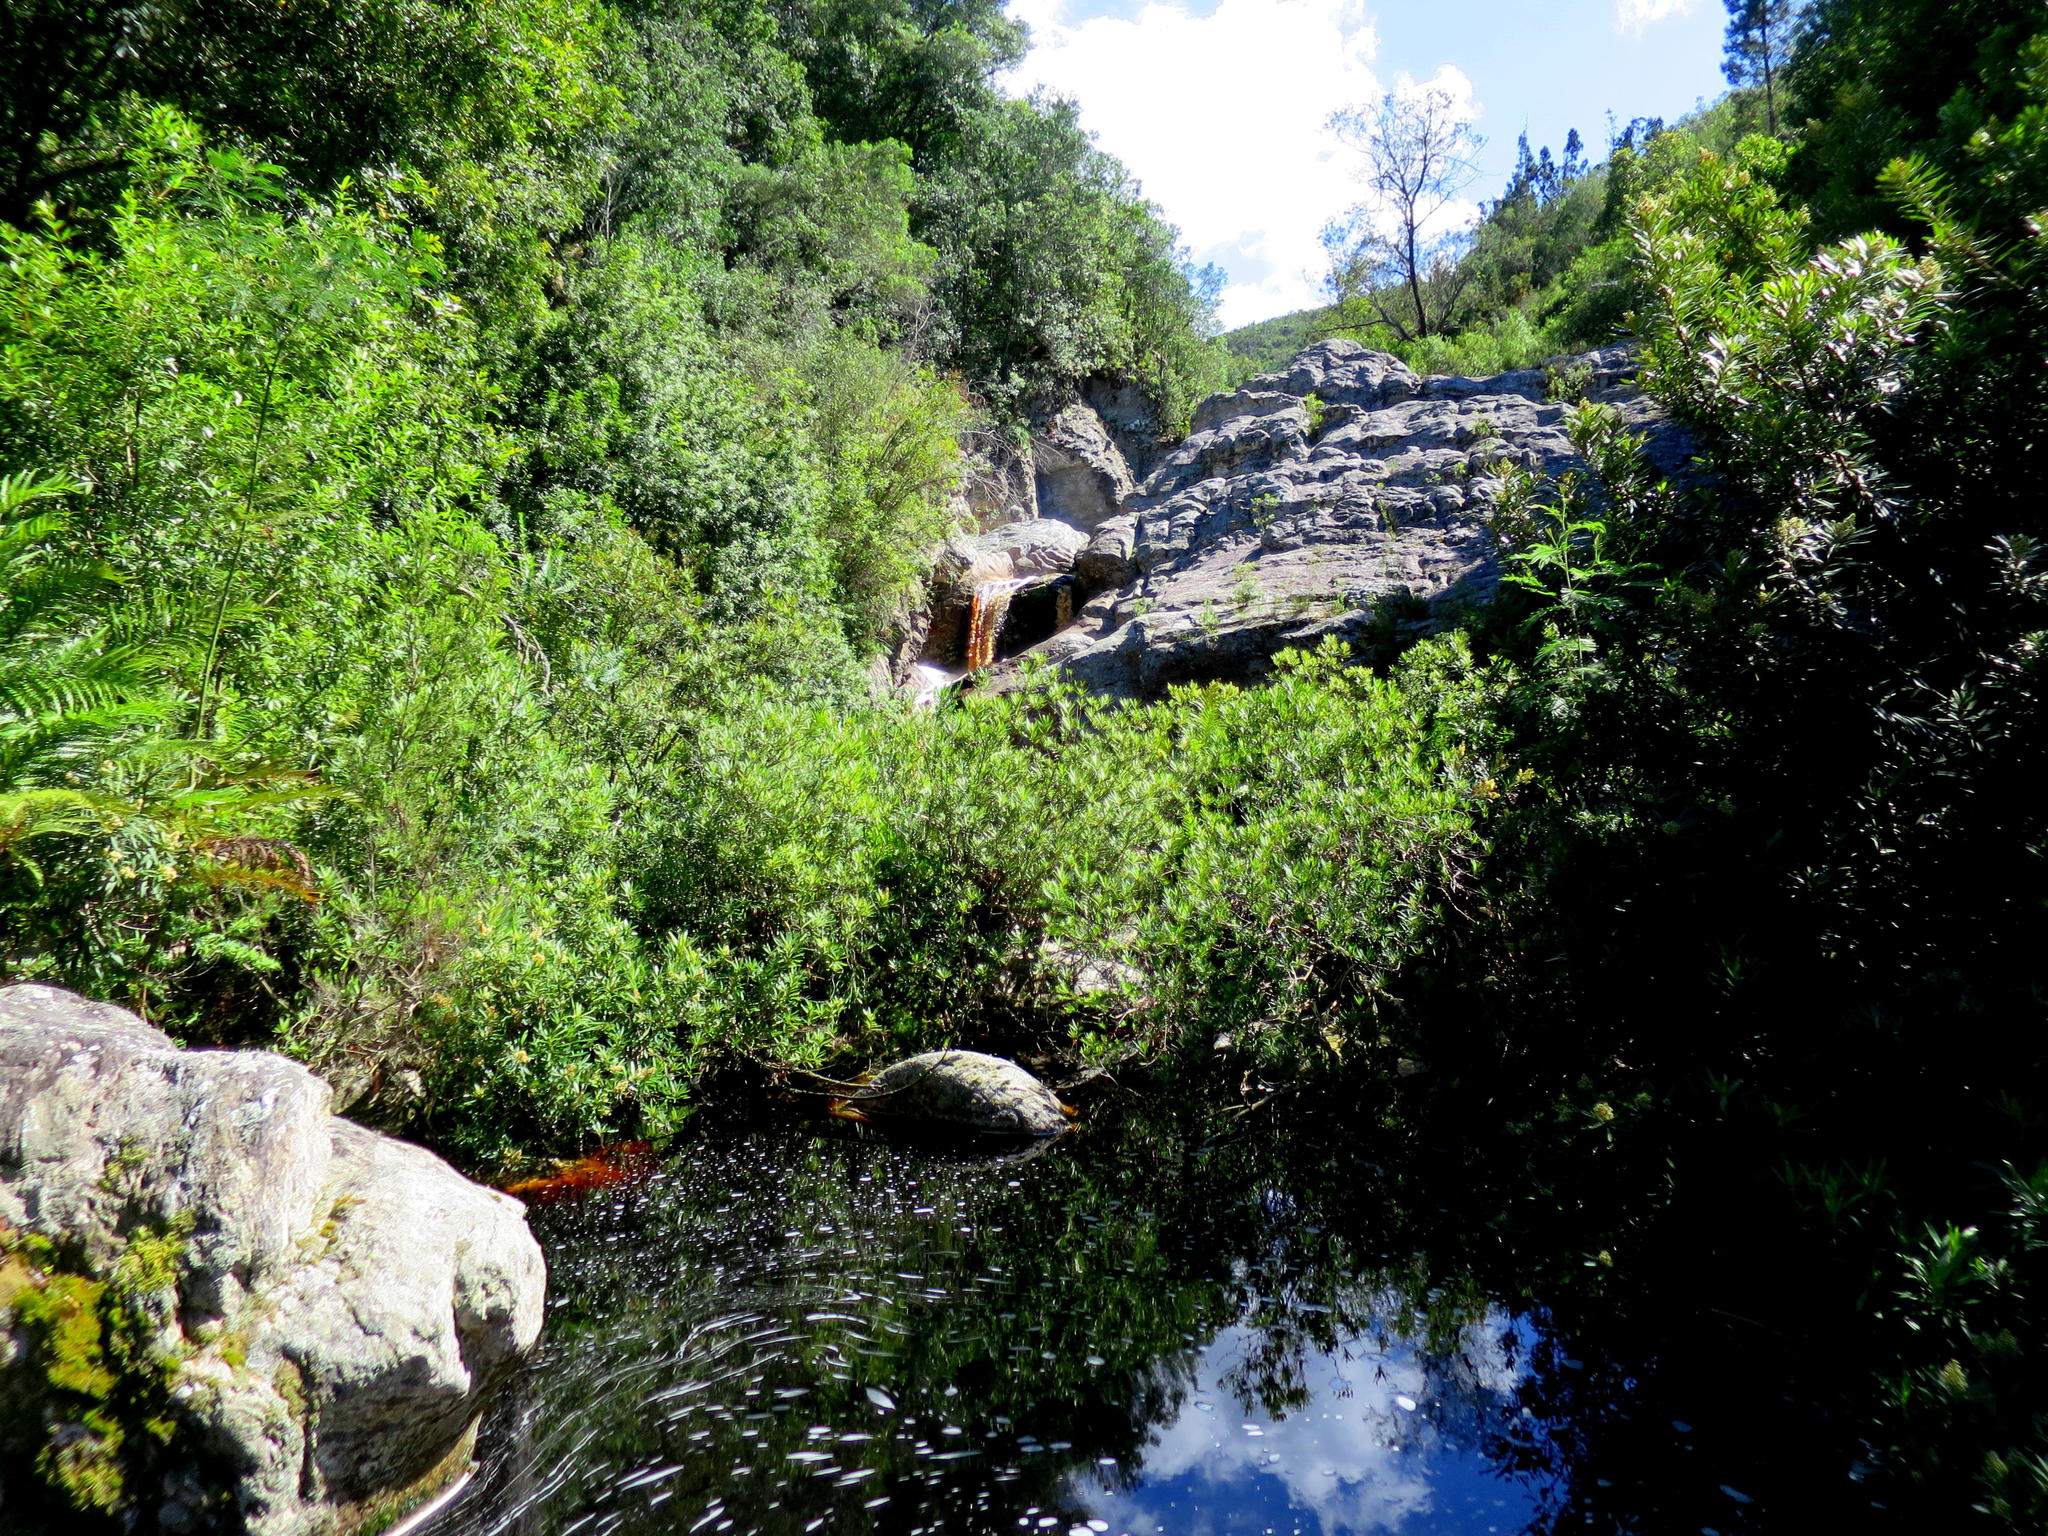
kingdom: Plantae
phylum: Tracheophyta
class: Polypodiopsida
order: Osmundales
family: Osmundaceae
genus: Todea
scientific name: Todea barbara
